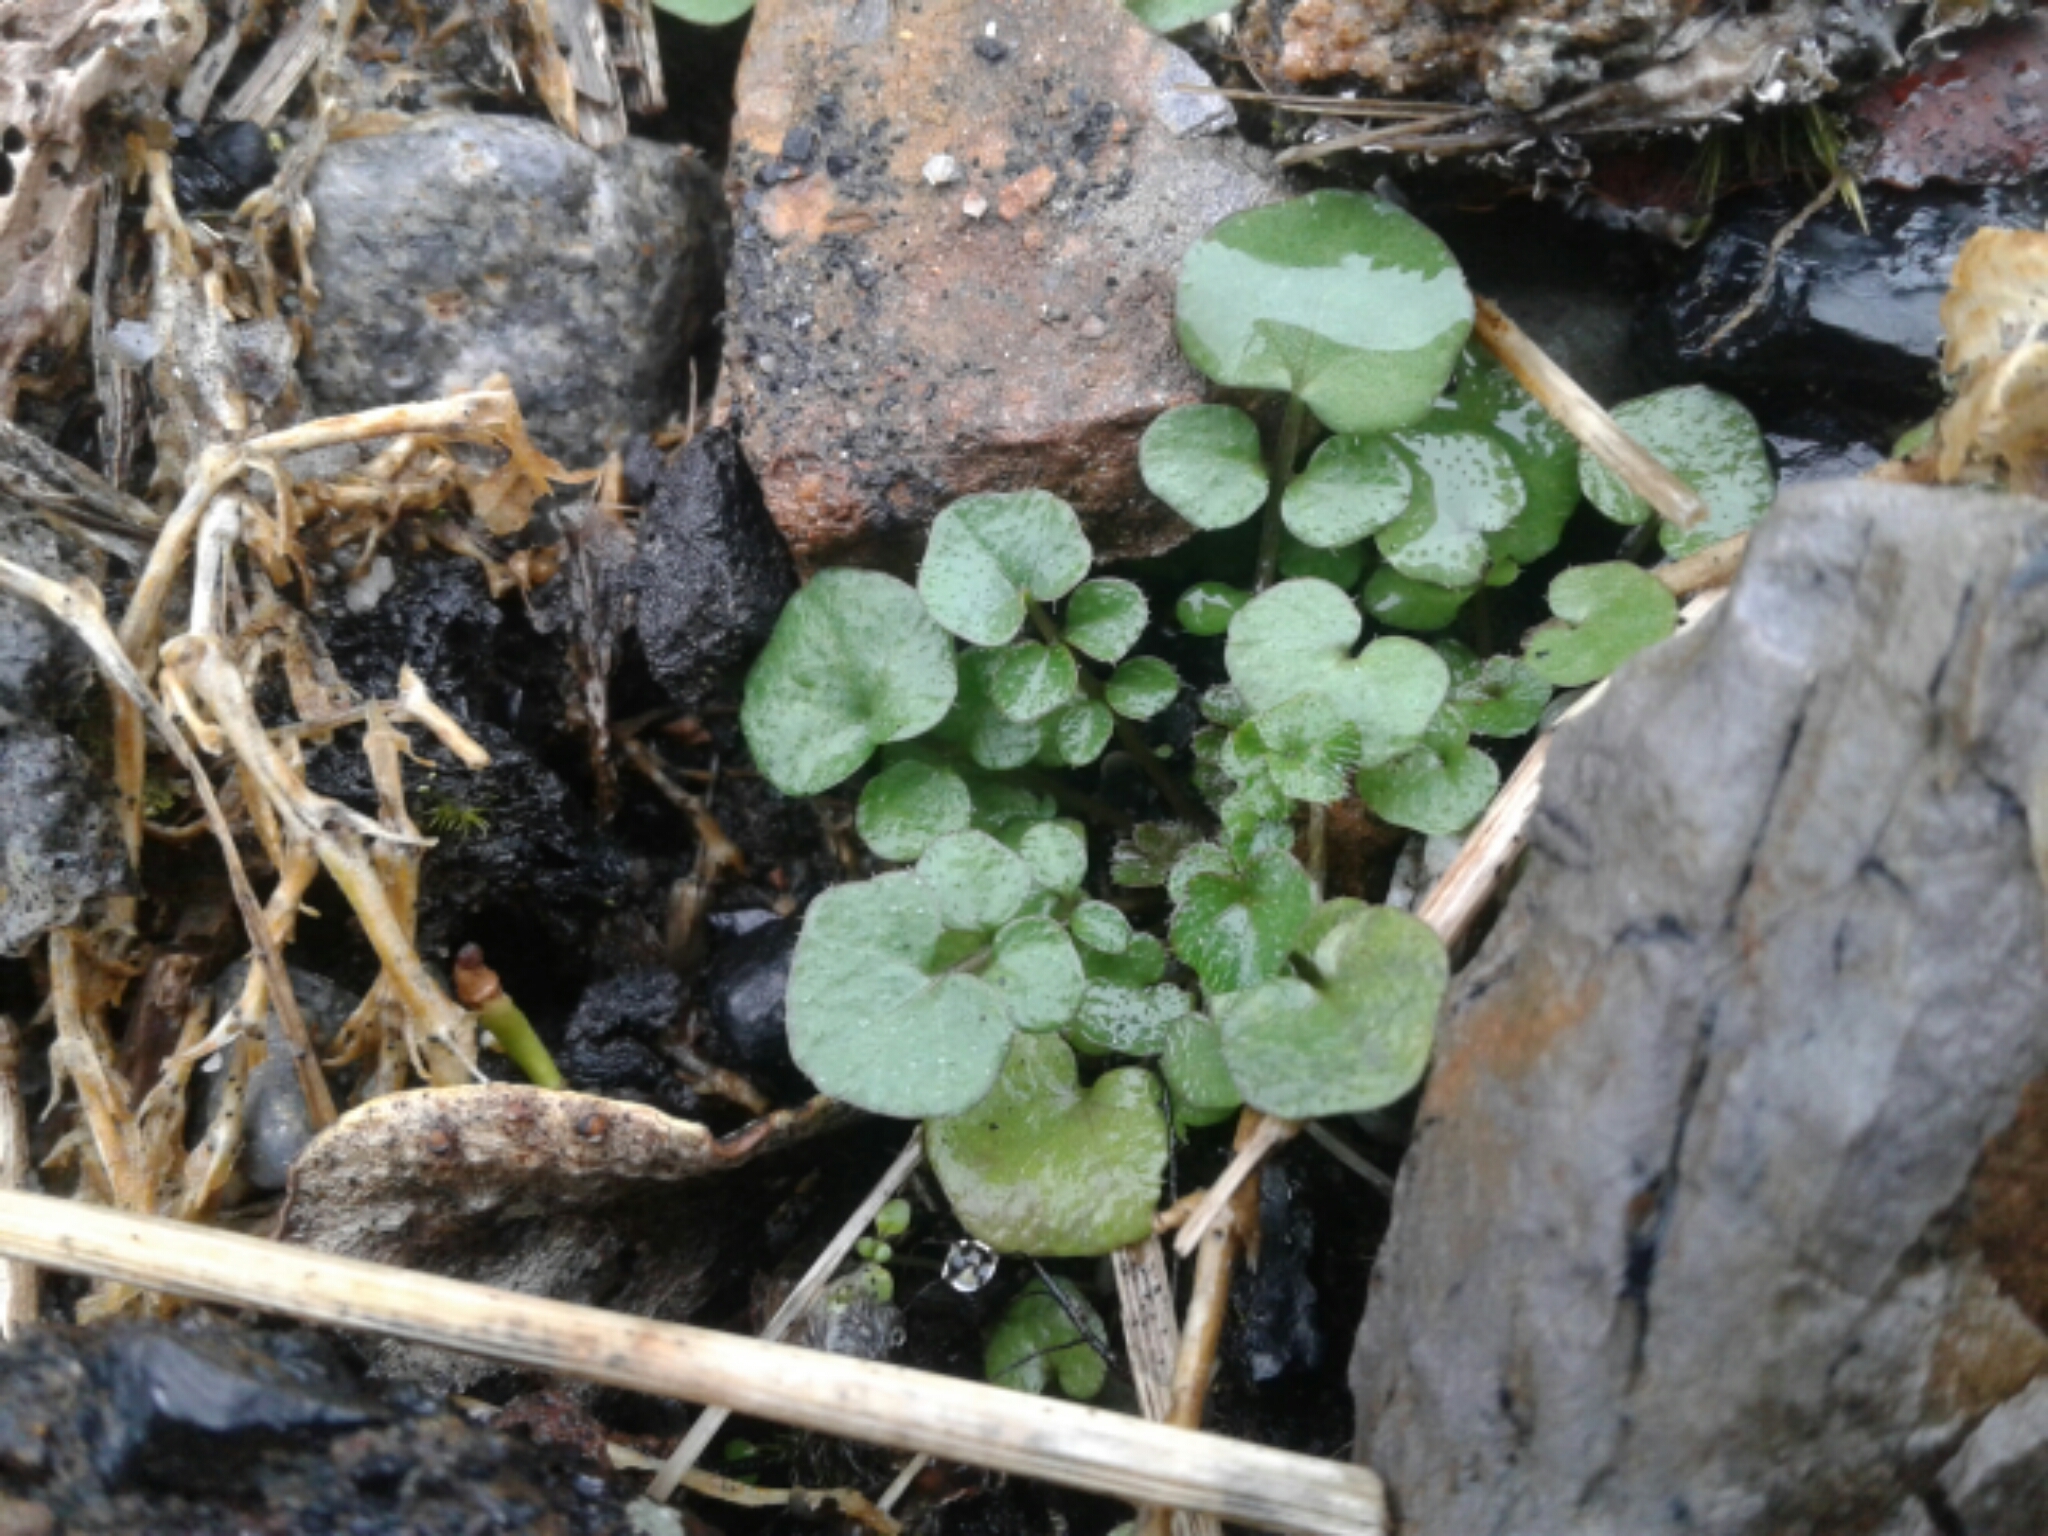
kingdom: Plantae
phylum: Tracheophyta
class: Magnoliopsida
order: Brassicales
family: Brassicaceae
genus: Cardamine
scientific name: Cardamine hirsuta
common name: Hairy bittercress
